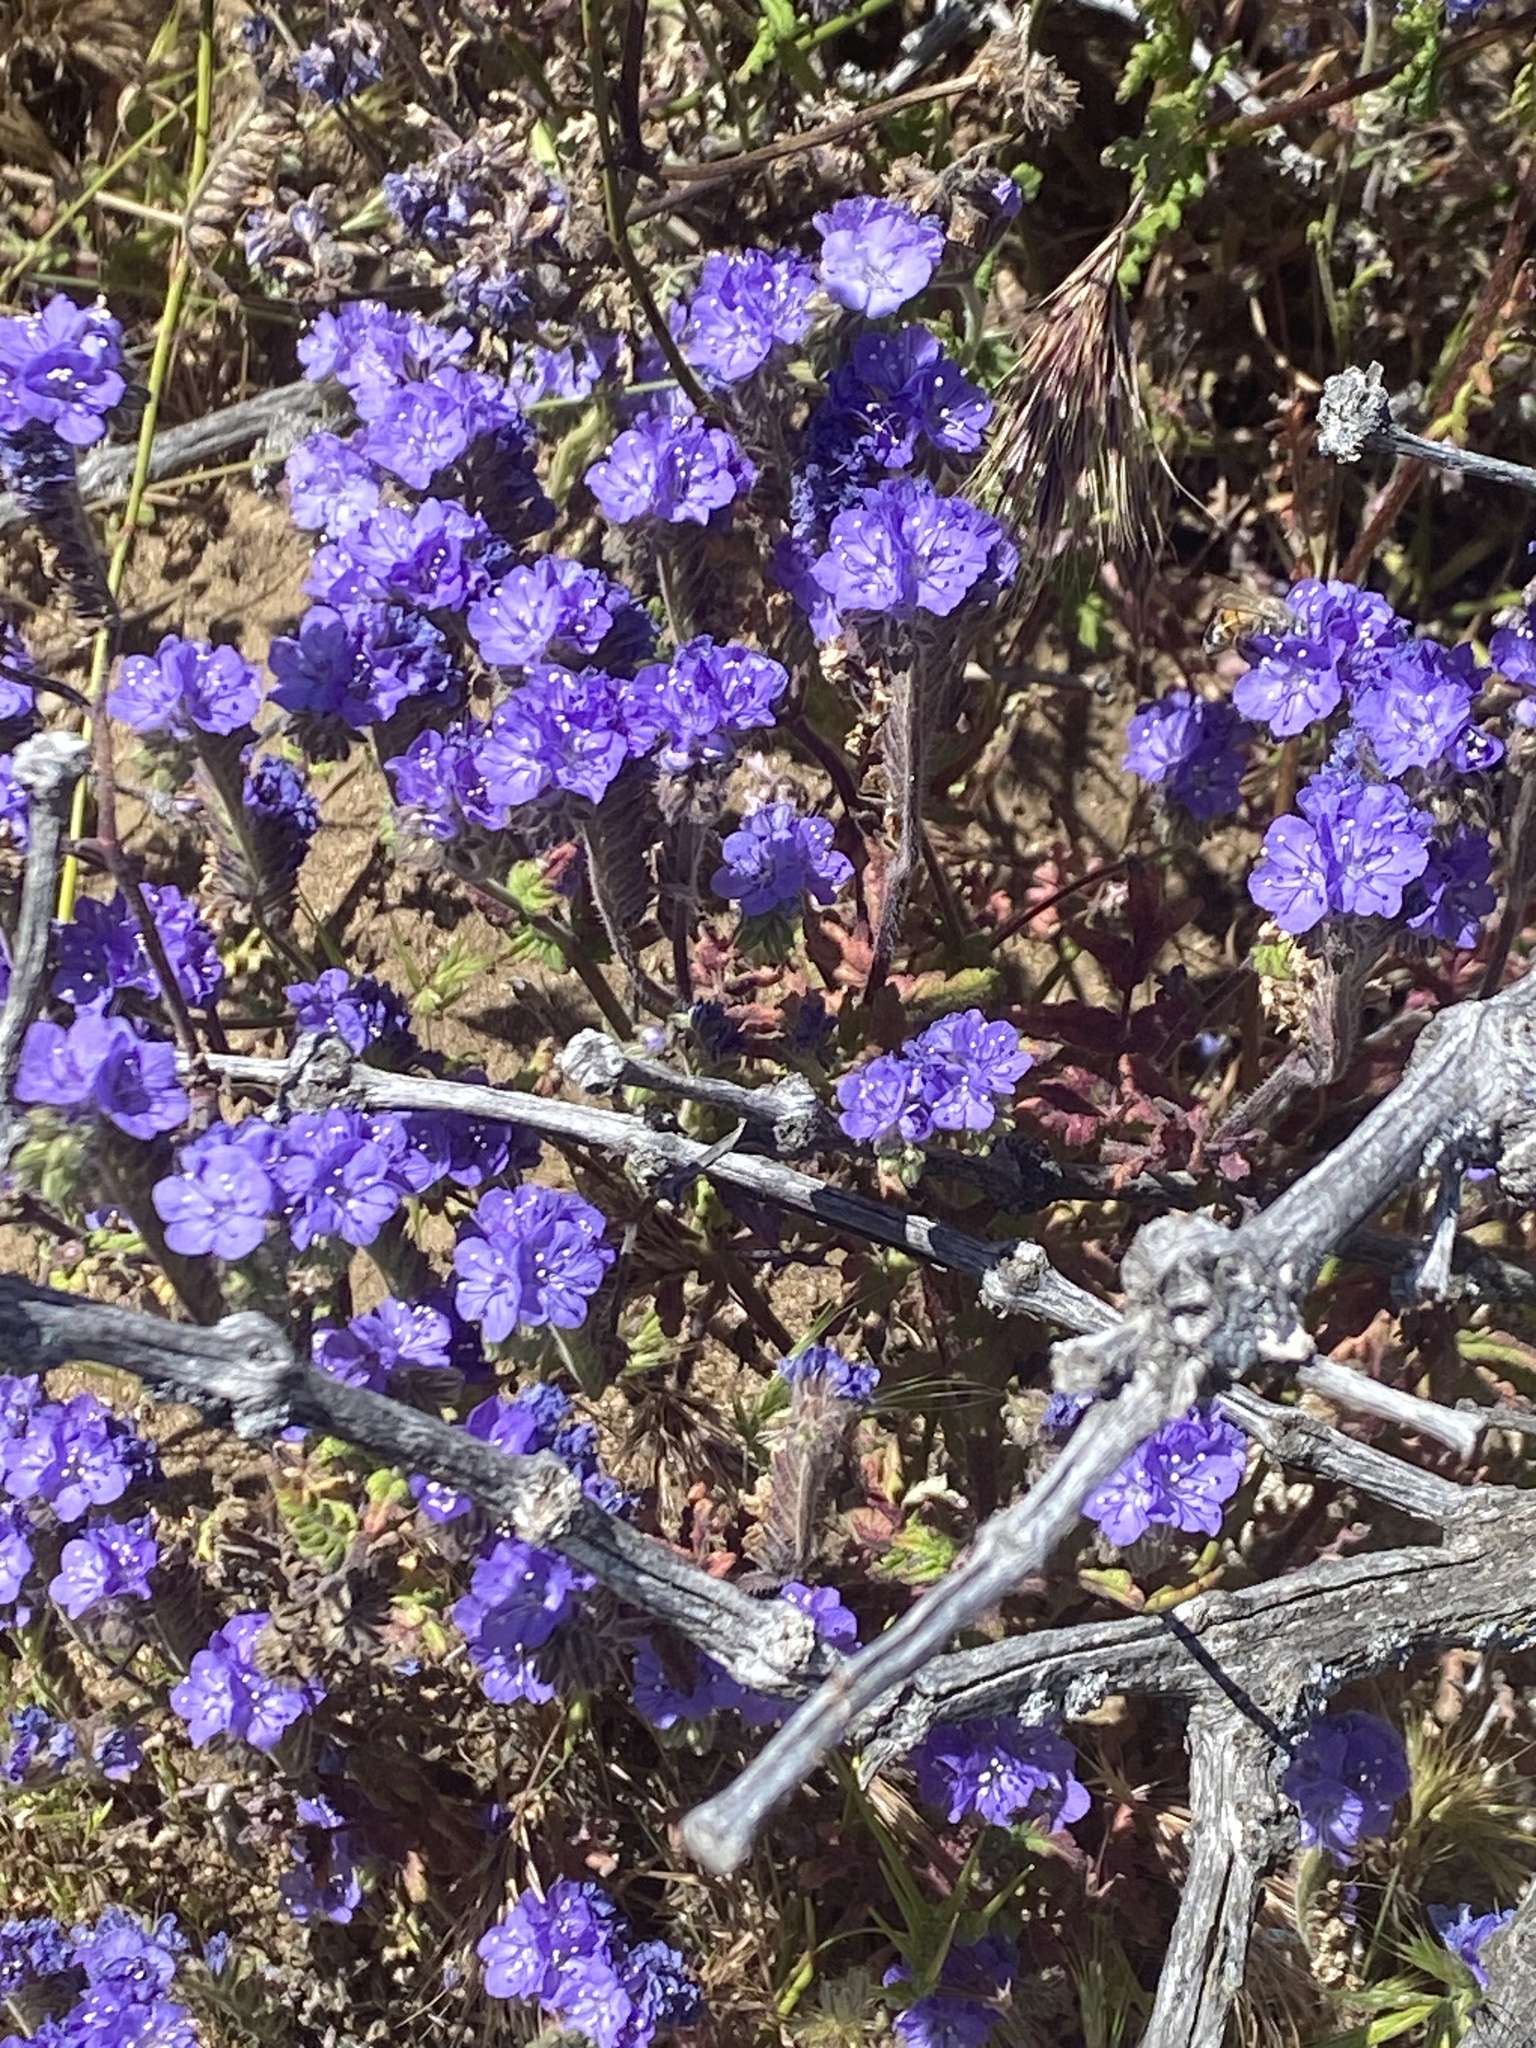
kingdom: Plantae
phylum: Tracheophyta
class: Magnoliopsida
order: Boraginales
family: Hydrophyllaceae
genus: Phacelia
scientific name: Phacelia distans
